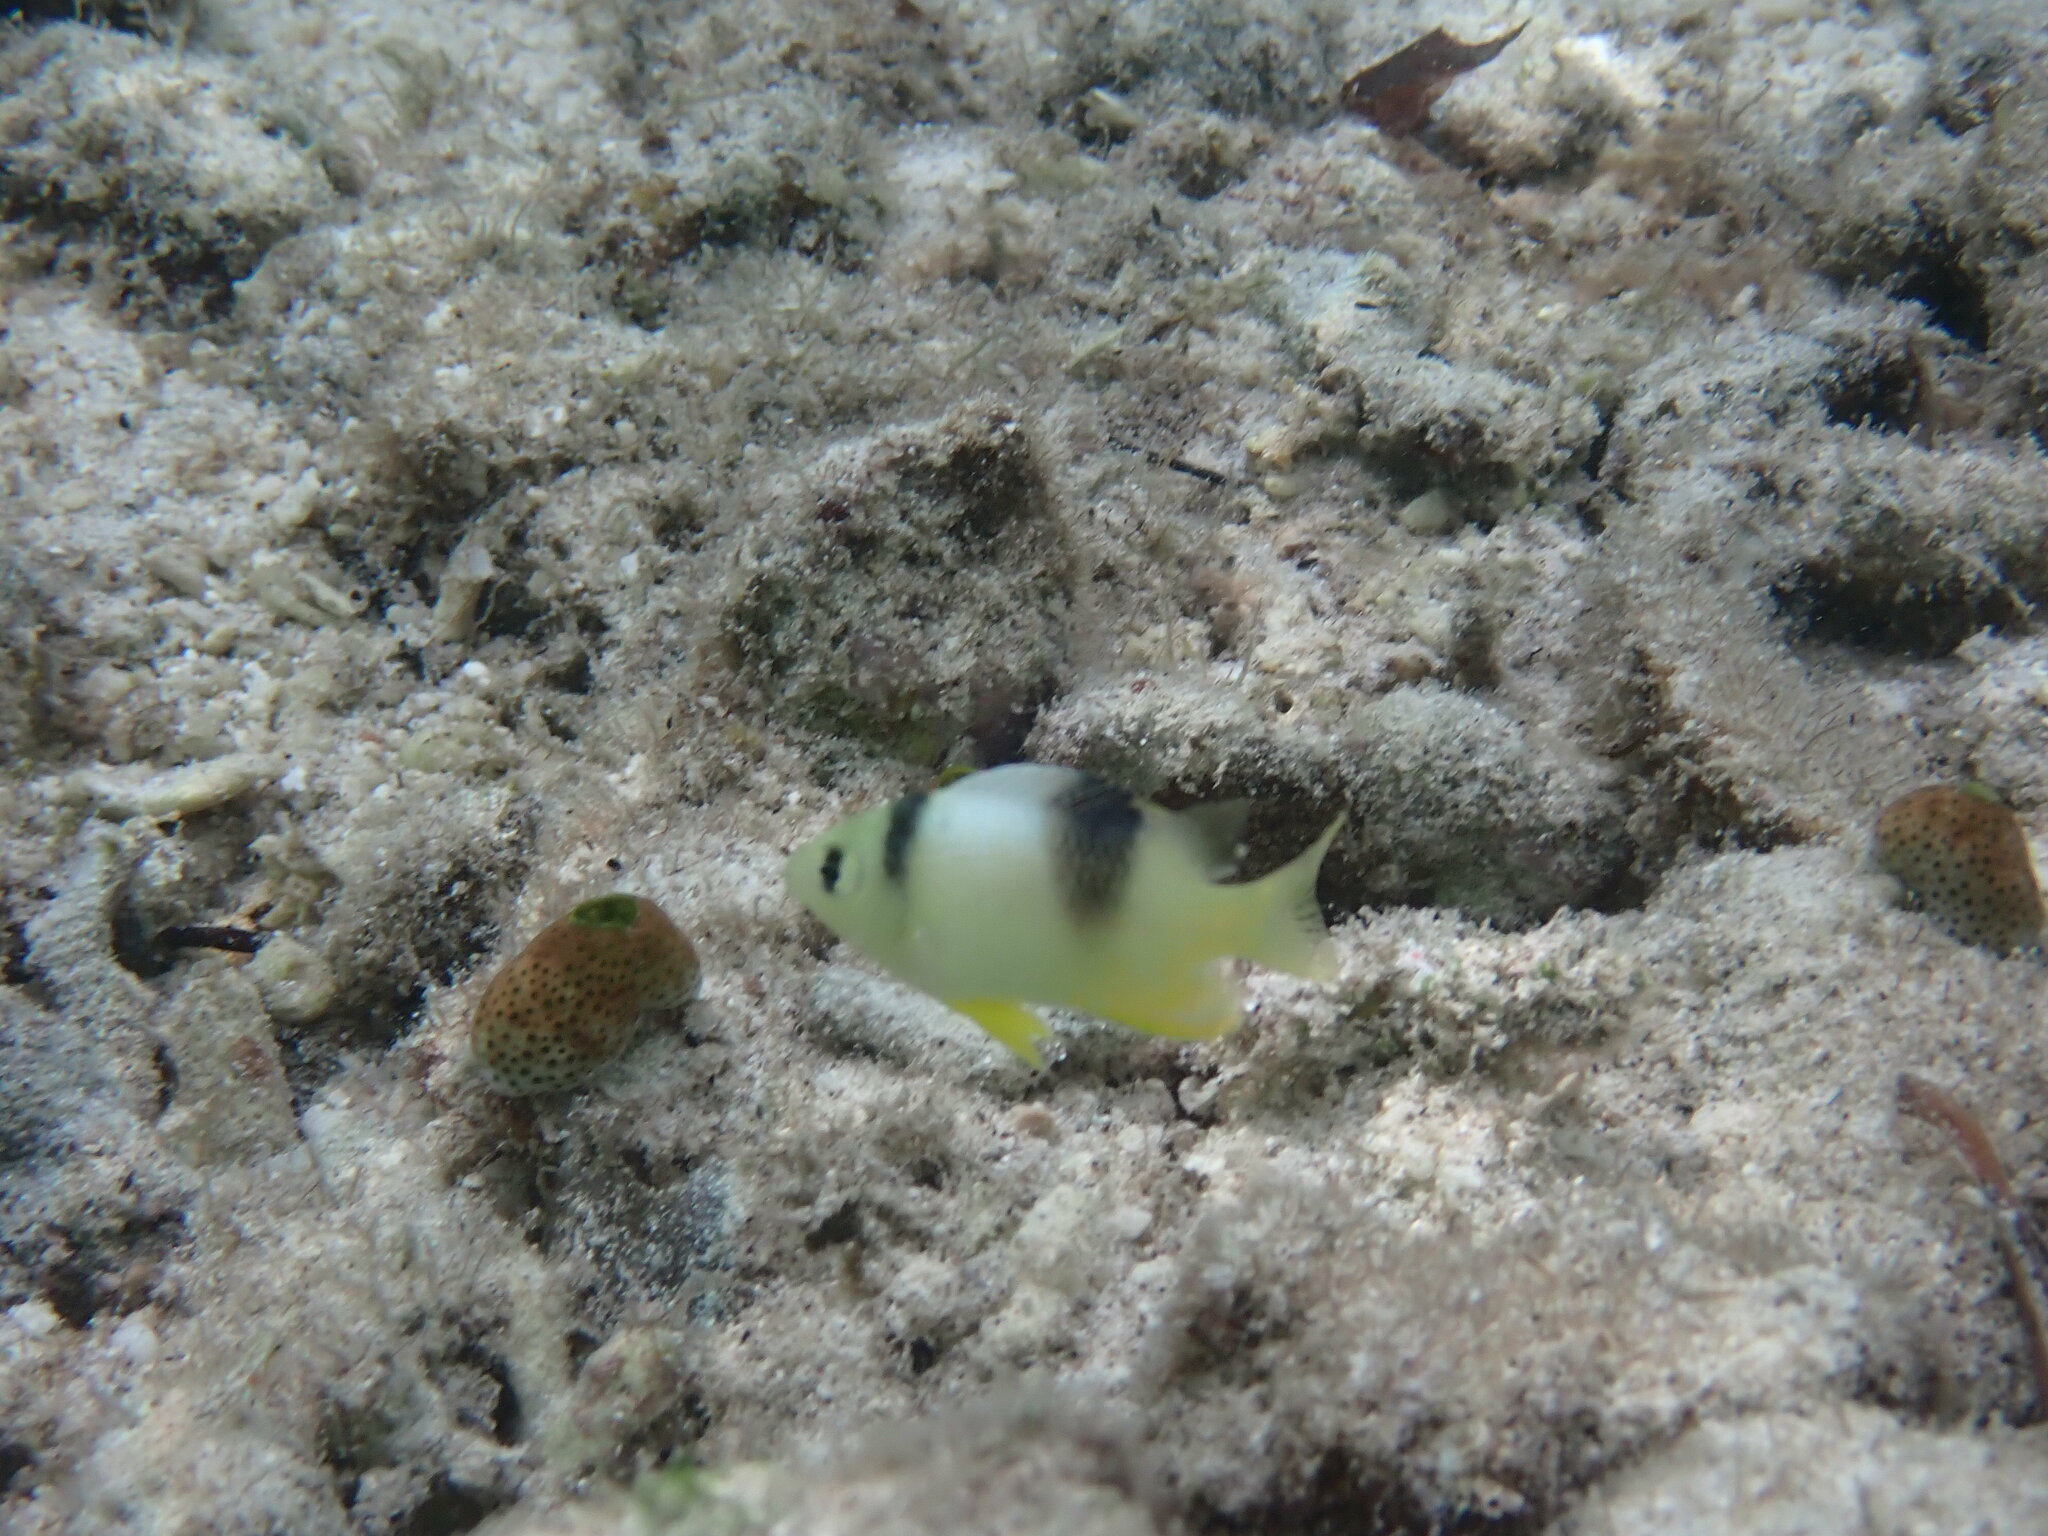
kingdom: Animalia
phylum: Chordata
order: Perciformes
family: Pomacentridae
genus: Dischistodus
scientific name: Dischistodus perspicillatus
